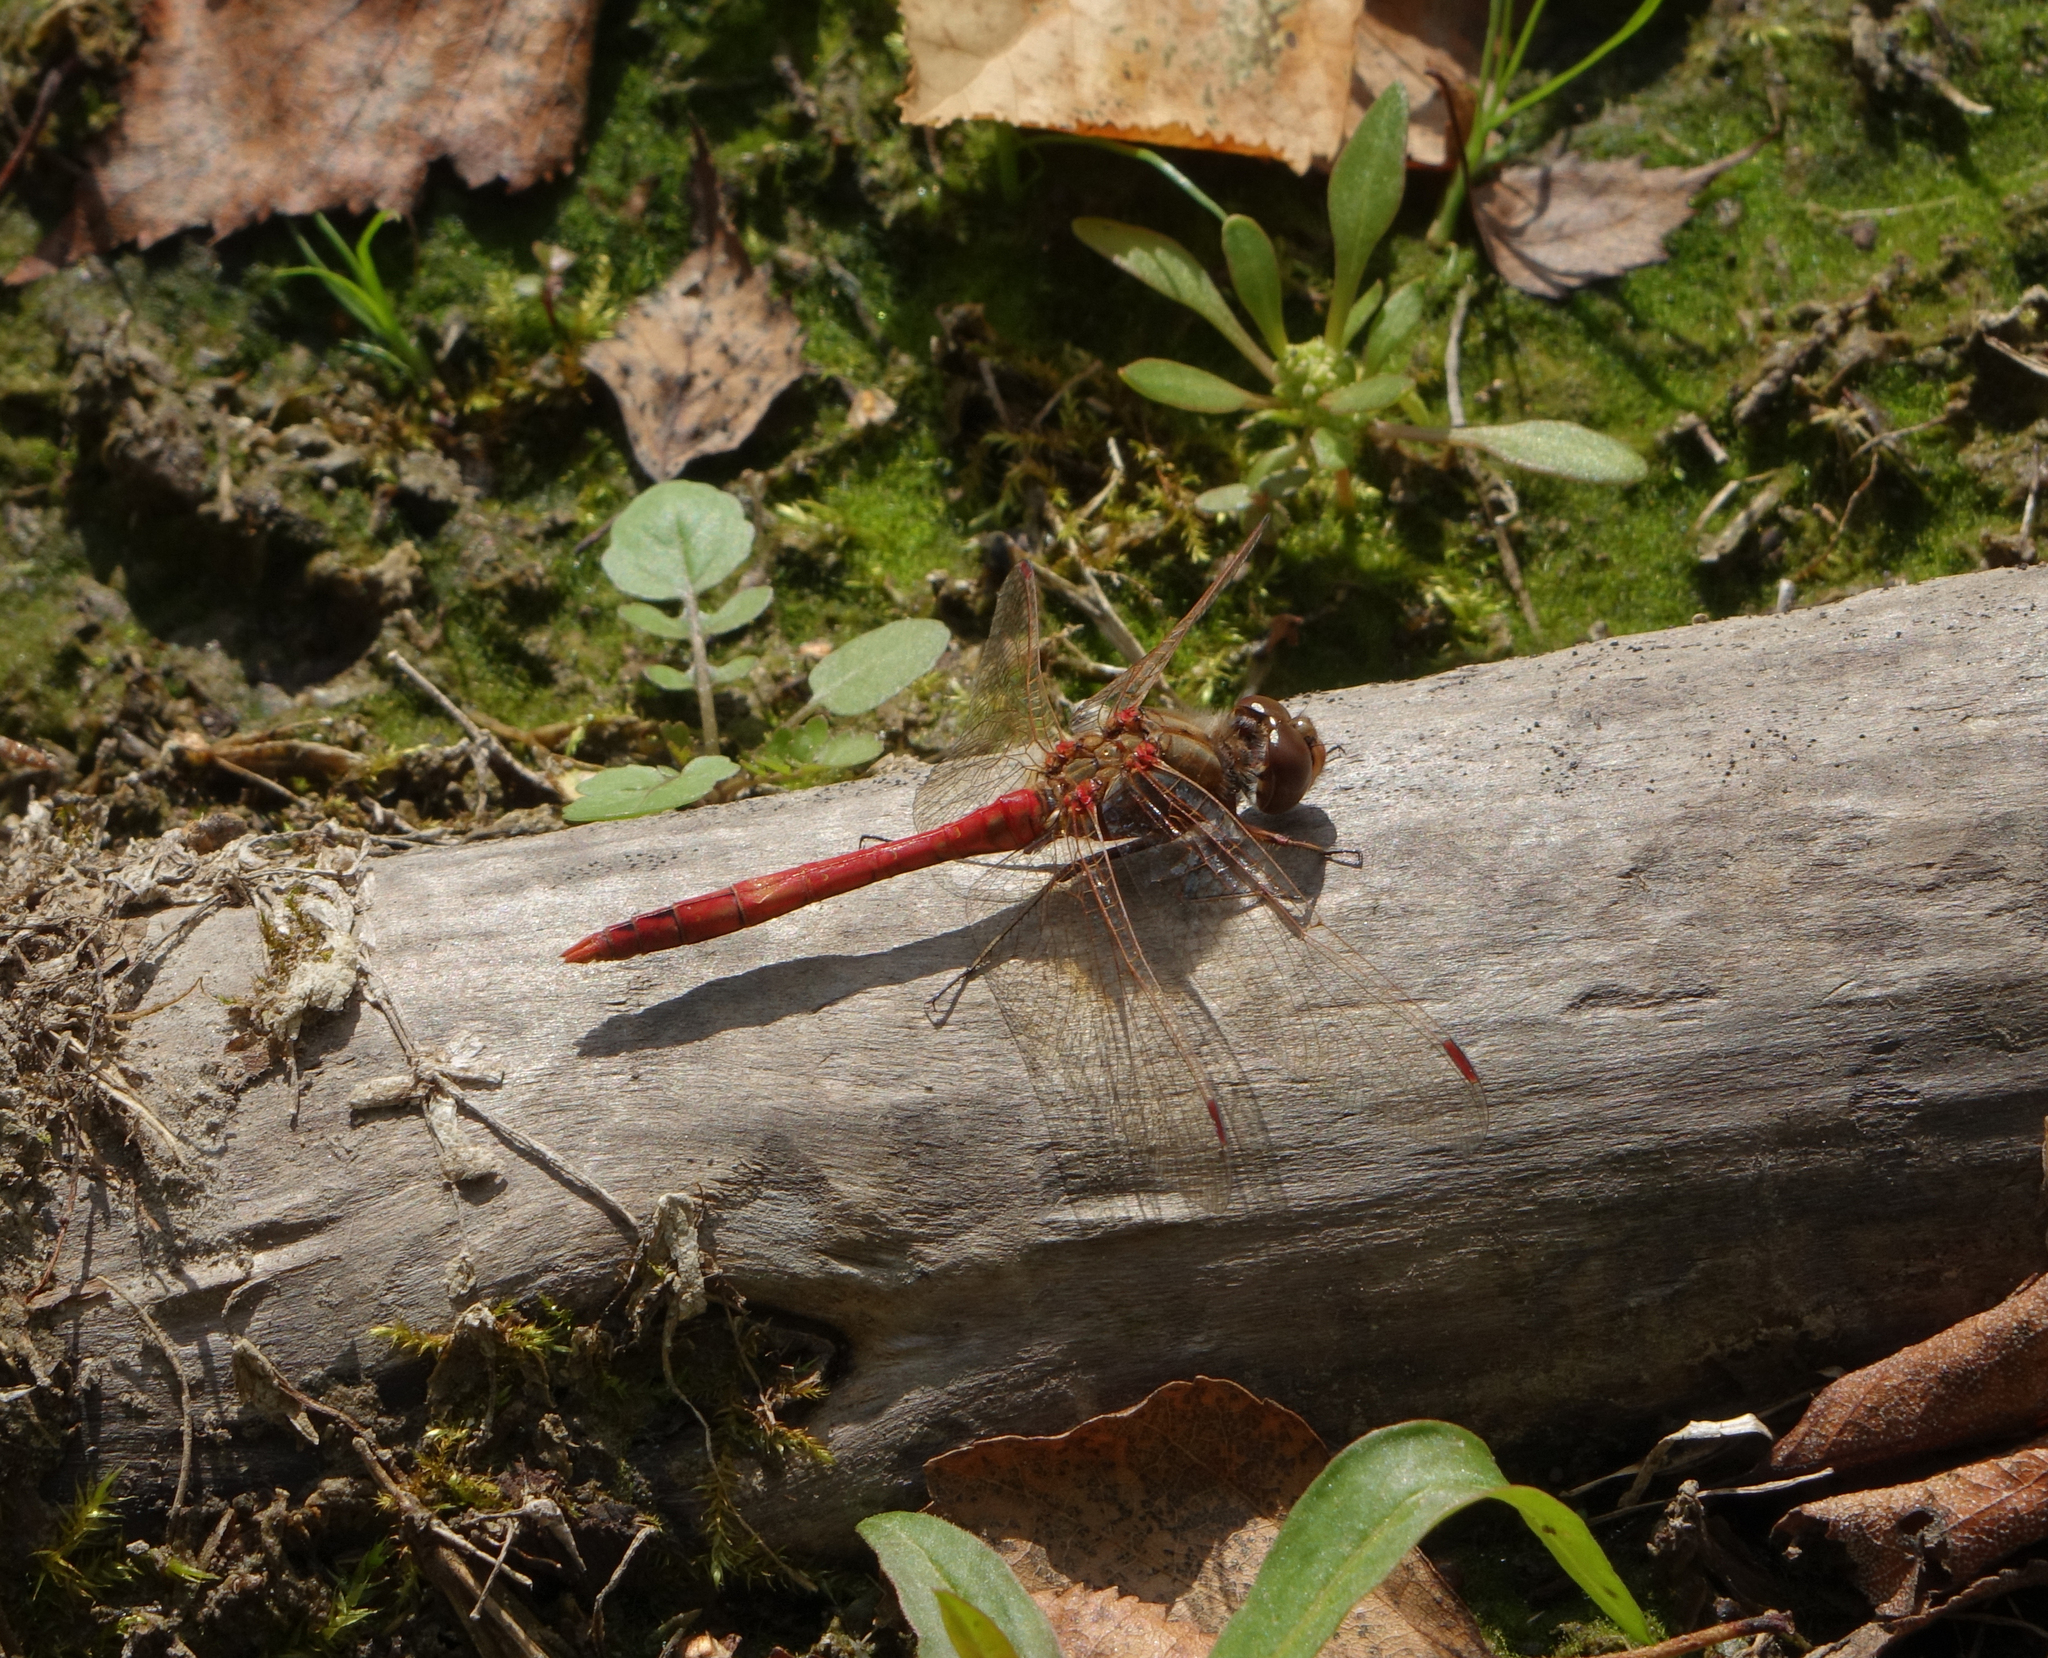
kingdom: Animalia
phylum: Arthropoda
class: Insecta
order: Odonata
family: Libellulidae
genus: Sympetrum
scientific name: Sympetrum vulgatum
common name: Vagrant darter
